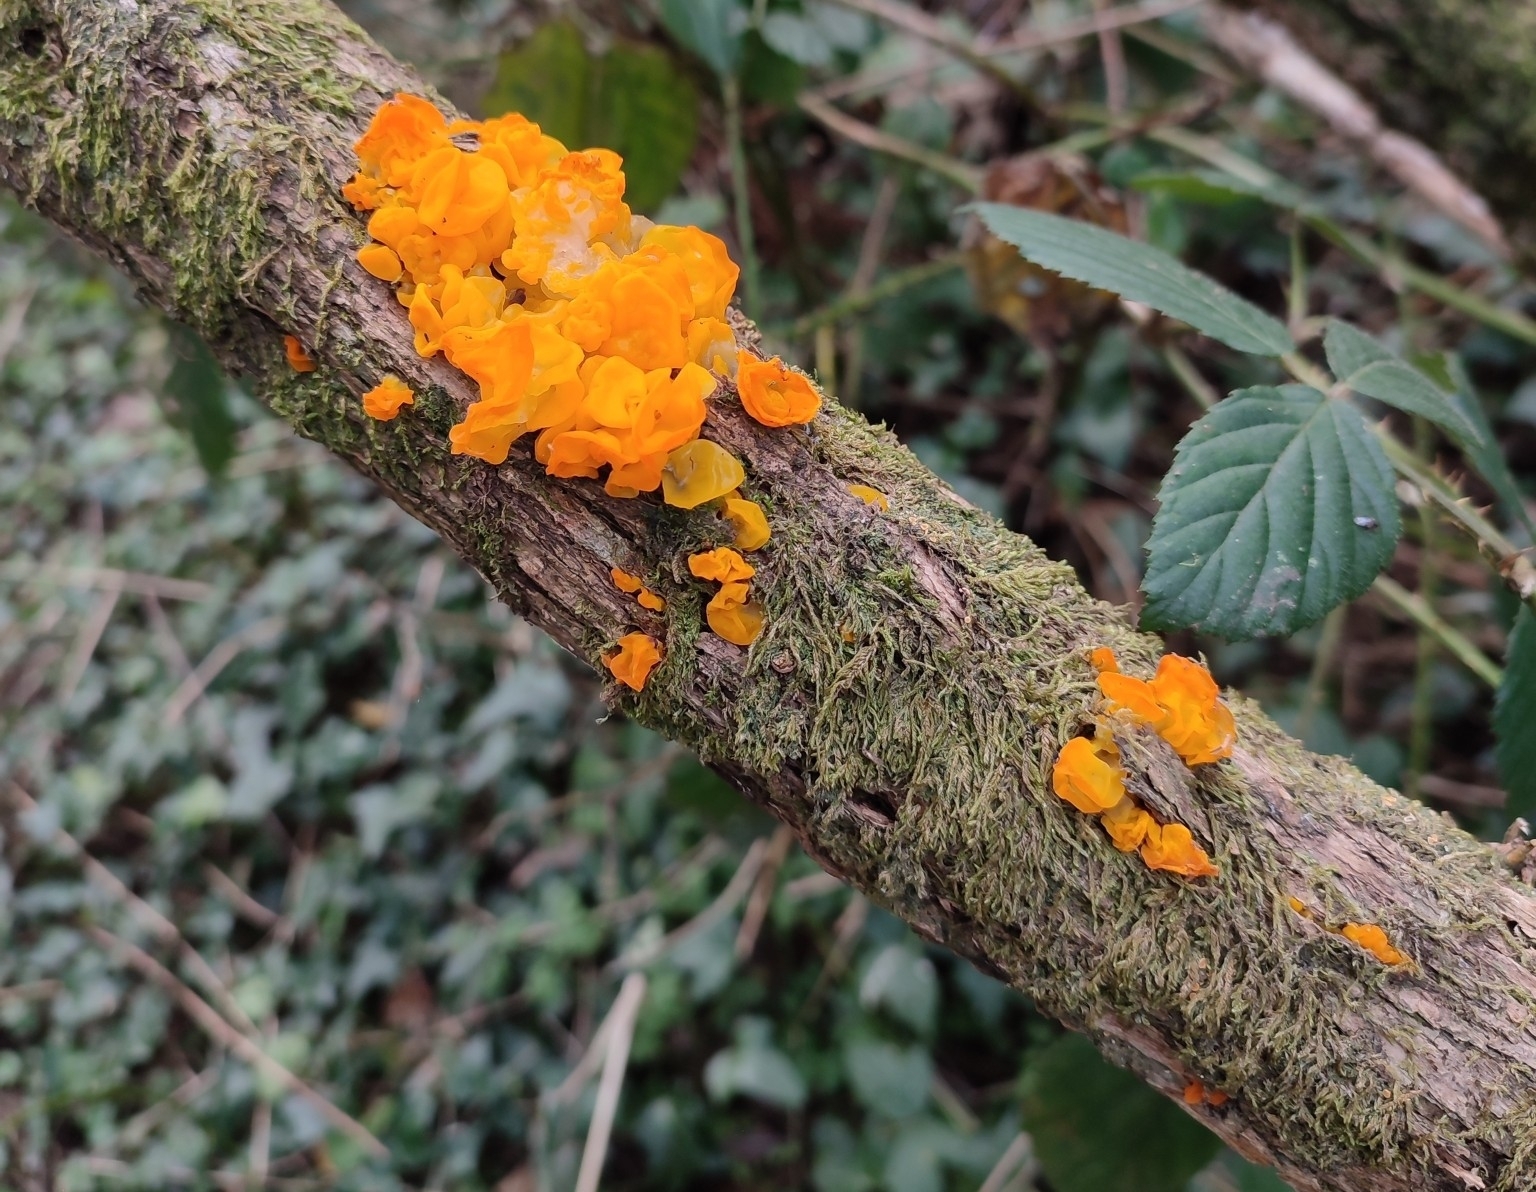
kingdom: Fungi
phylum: Basidiomycota
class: Tremellomycetes
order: Tremellales
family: Tremellaceae
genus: Tremella
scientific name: Tremella mesenterica
